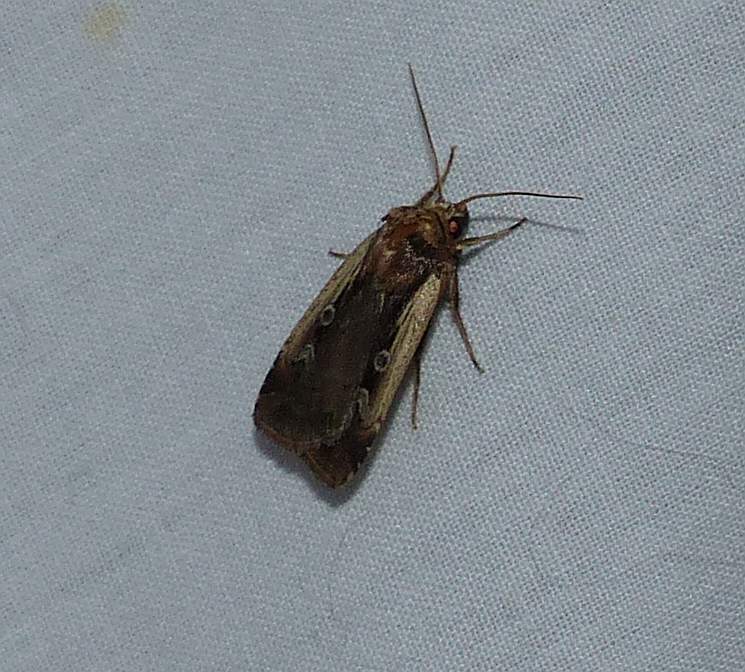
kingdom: Animalia
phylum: Arthropoda
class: Insecta
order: Lepidoptera
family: Noctuidae
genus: Ochropleura
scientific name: Ochropleura implecta
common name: Flame-shouldered dart
